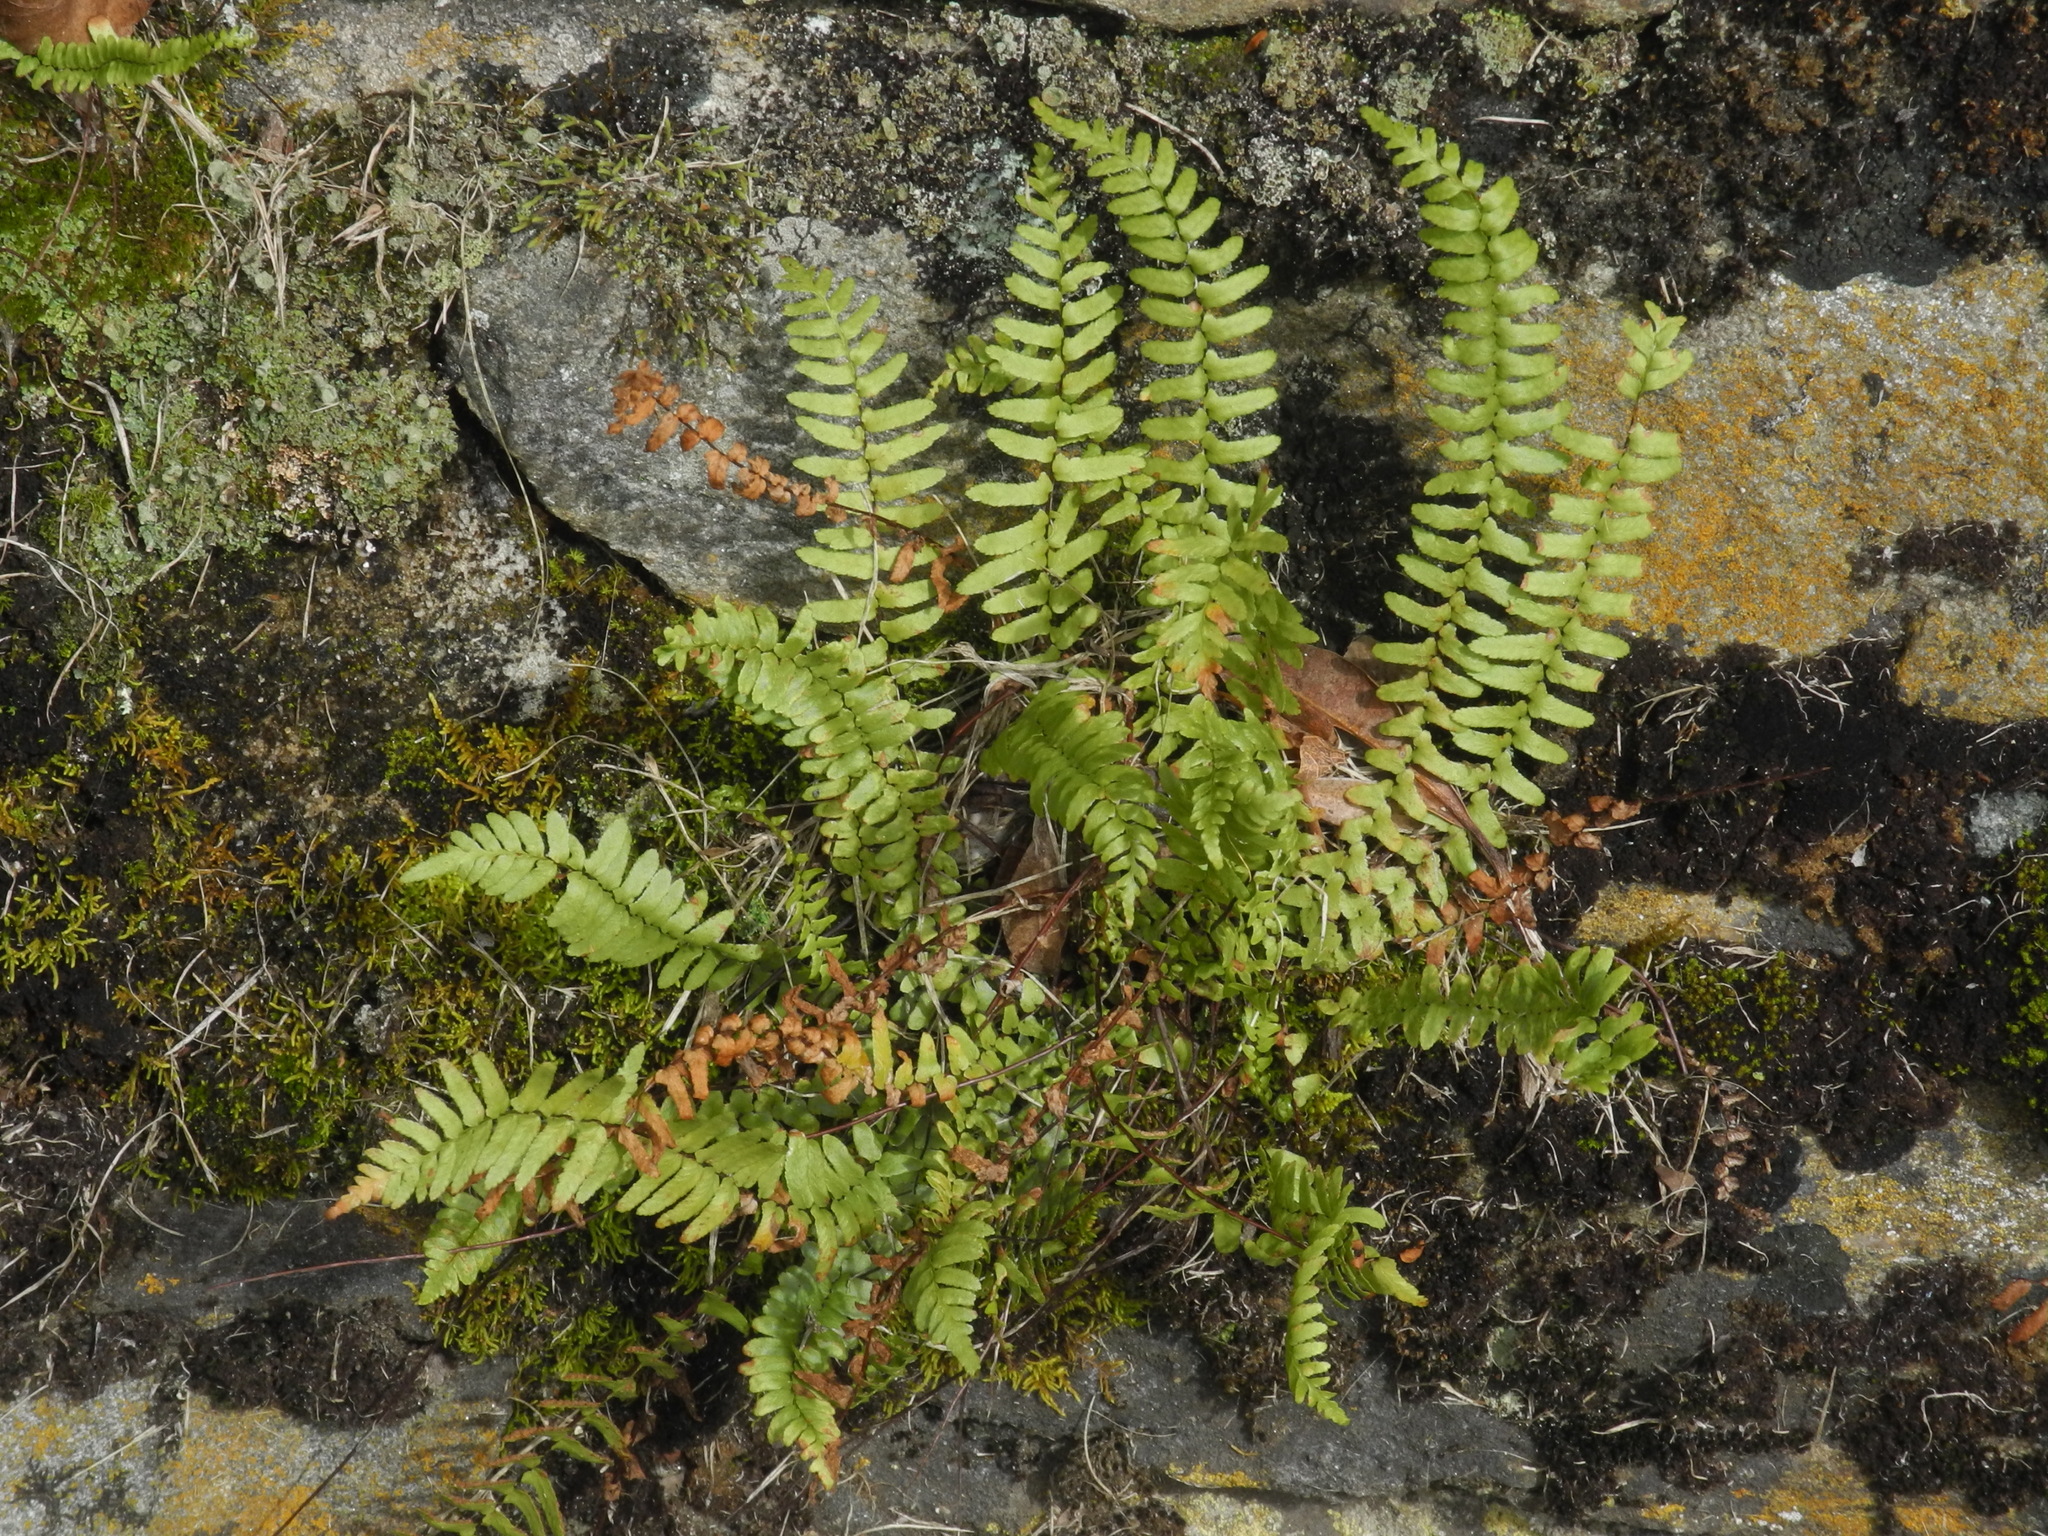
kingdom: Plantae
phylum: Tracheophyta
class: Polypodiopsida
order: Polypodiales
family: Aspleniaceae
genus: Asplenium
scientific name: Asplenium platyneuron
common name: Ebony spleenwort
